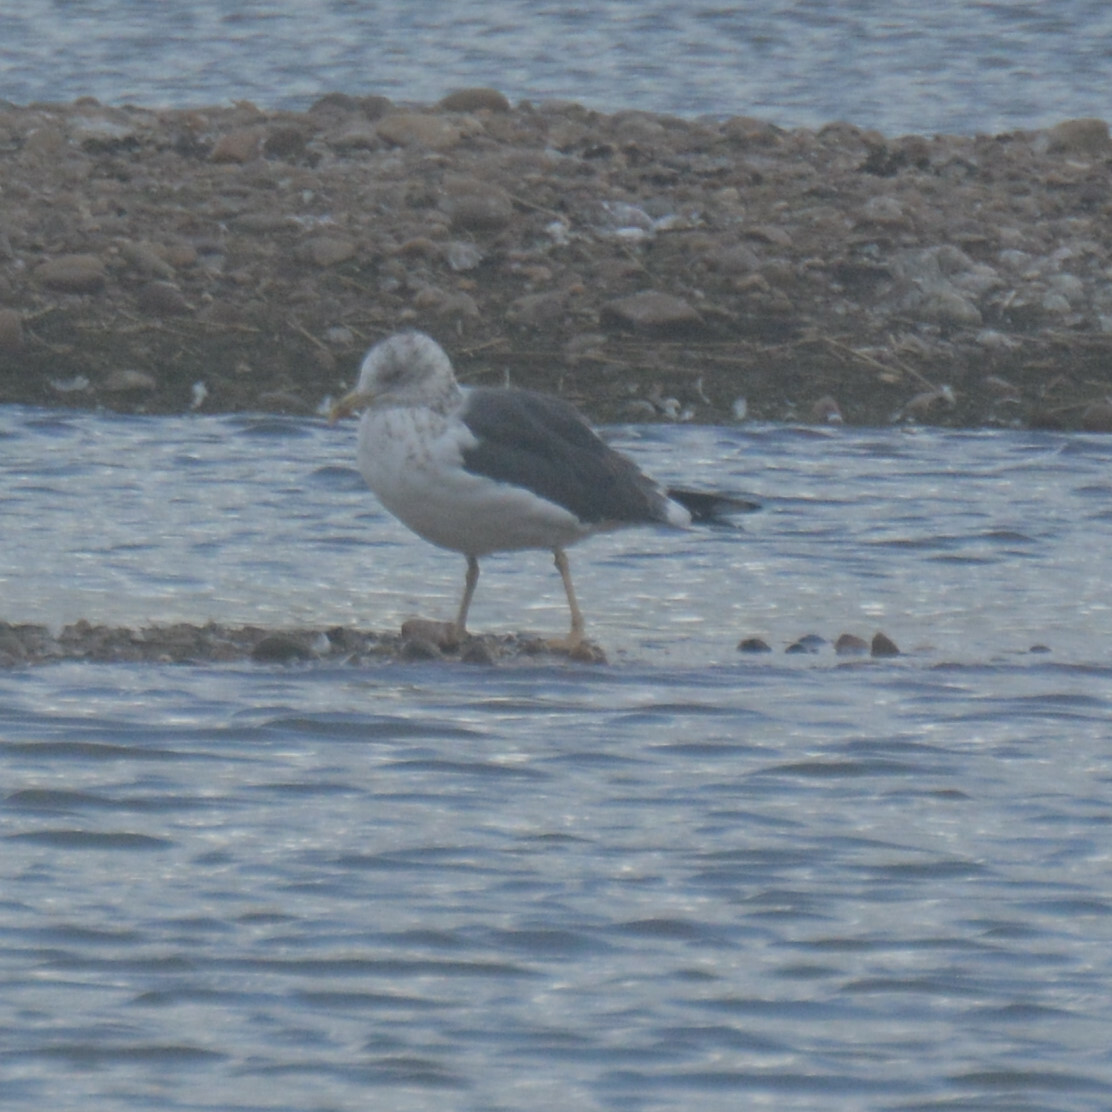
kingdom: Animalia
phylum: Chordata
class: Aves
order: Charadriiformes
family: Laridae
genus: Larus
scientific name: Larus fuscus
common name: Lesser black-backed gull
